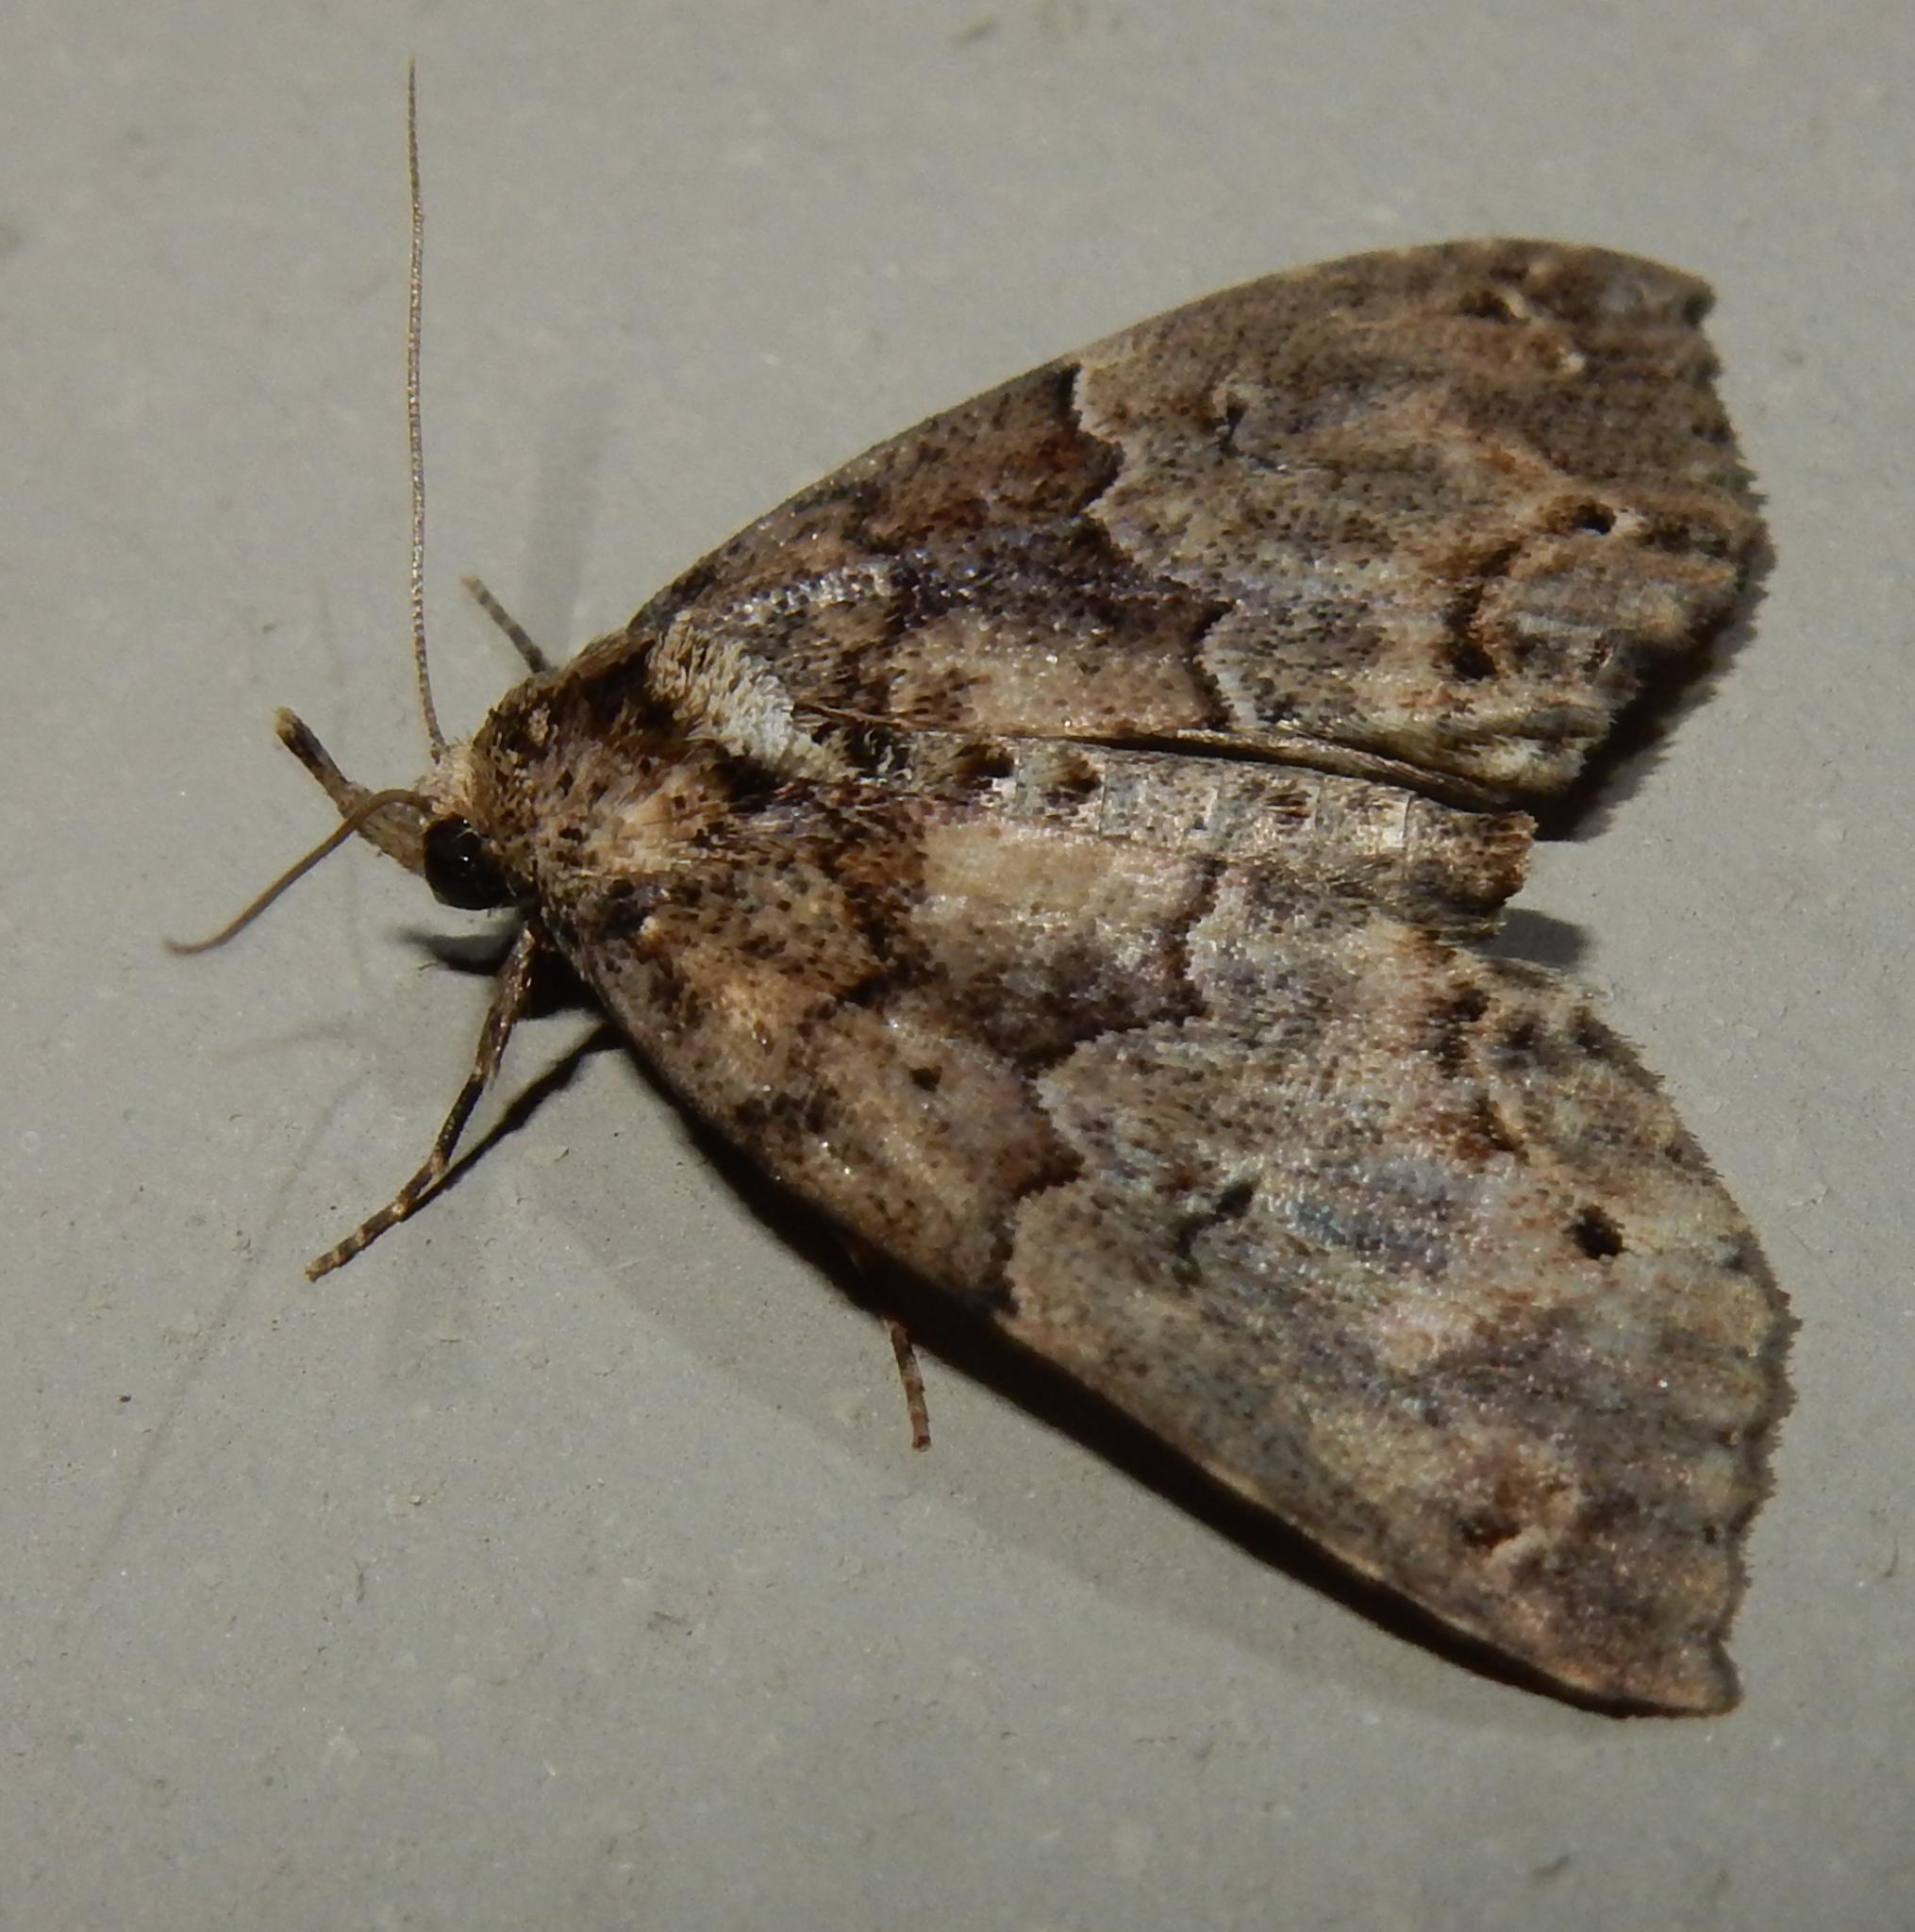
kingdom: Animalia
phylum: Arthropoda
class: Insecta
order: Lepidoptera
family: Erebidae
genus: Sarmatia
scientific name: Sarmatia interitalis
